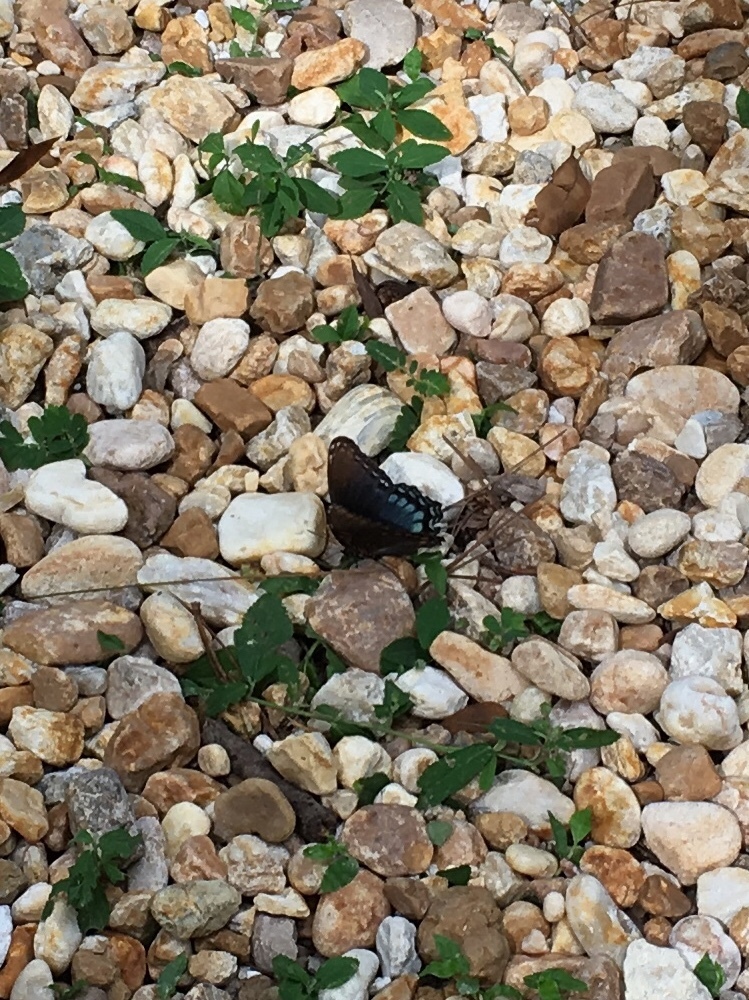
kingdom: Animalia
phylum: Arthropoda
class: Insecta
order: Lepidoptera
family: Nymphalidae
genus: Limenitis
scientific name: Limenitis arthemis
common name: Red-spotted admiral
